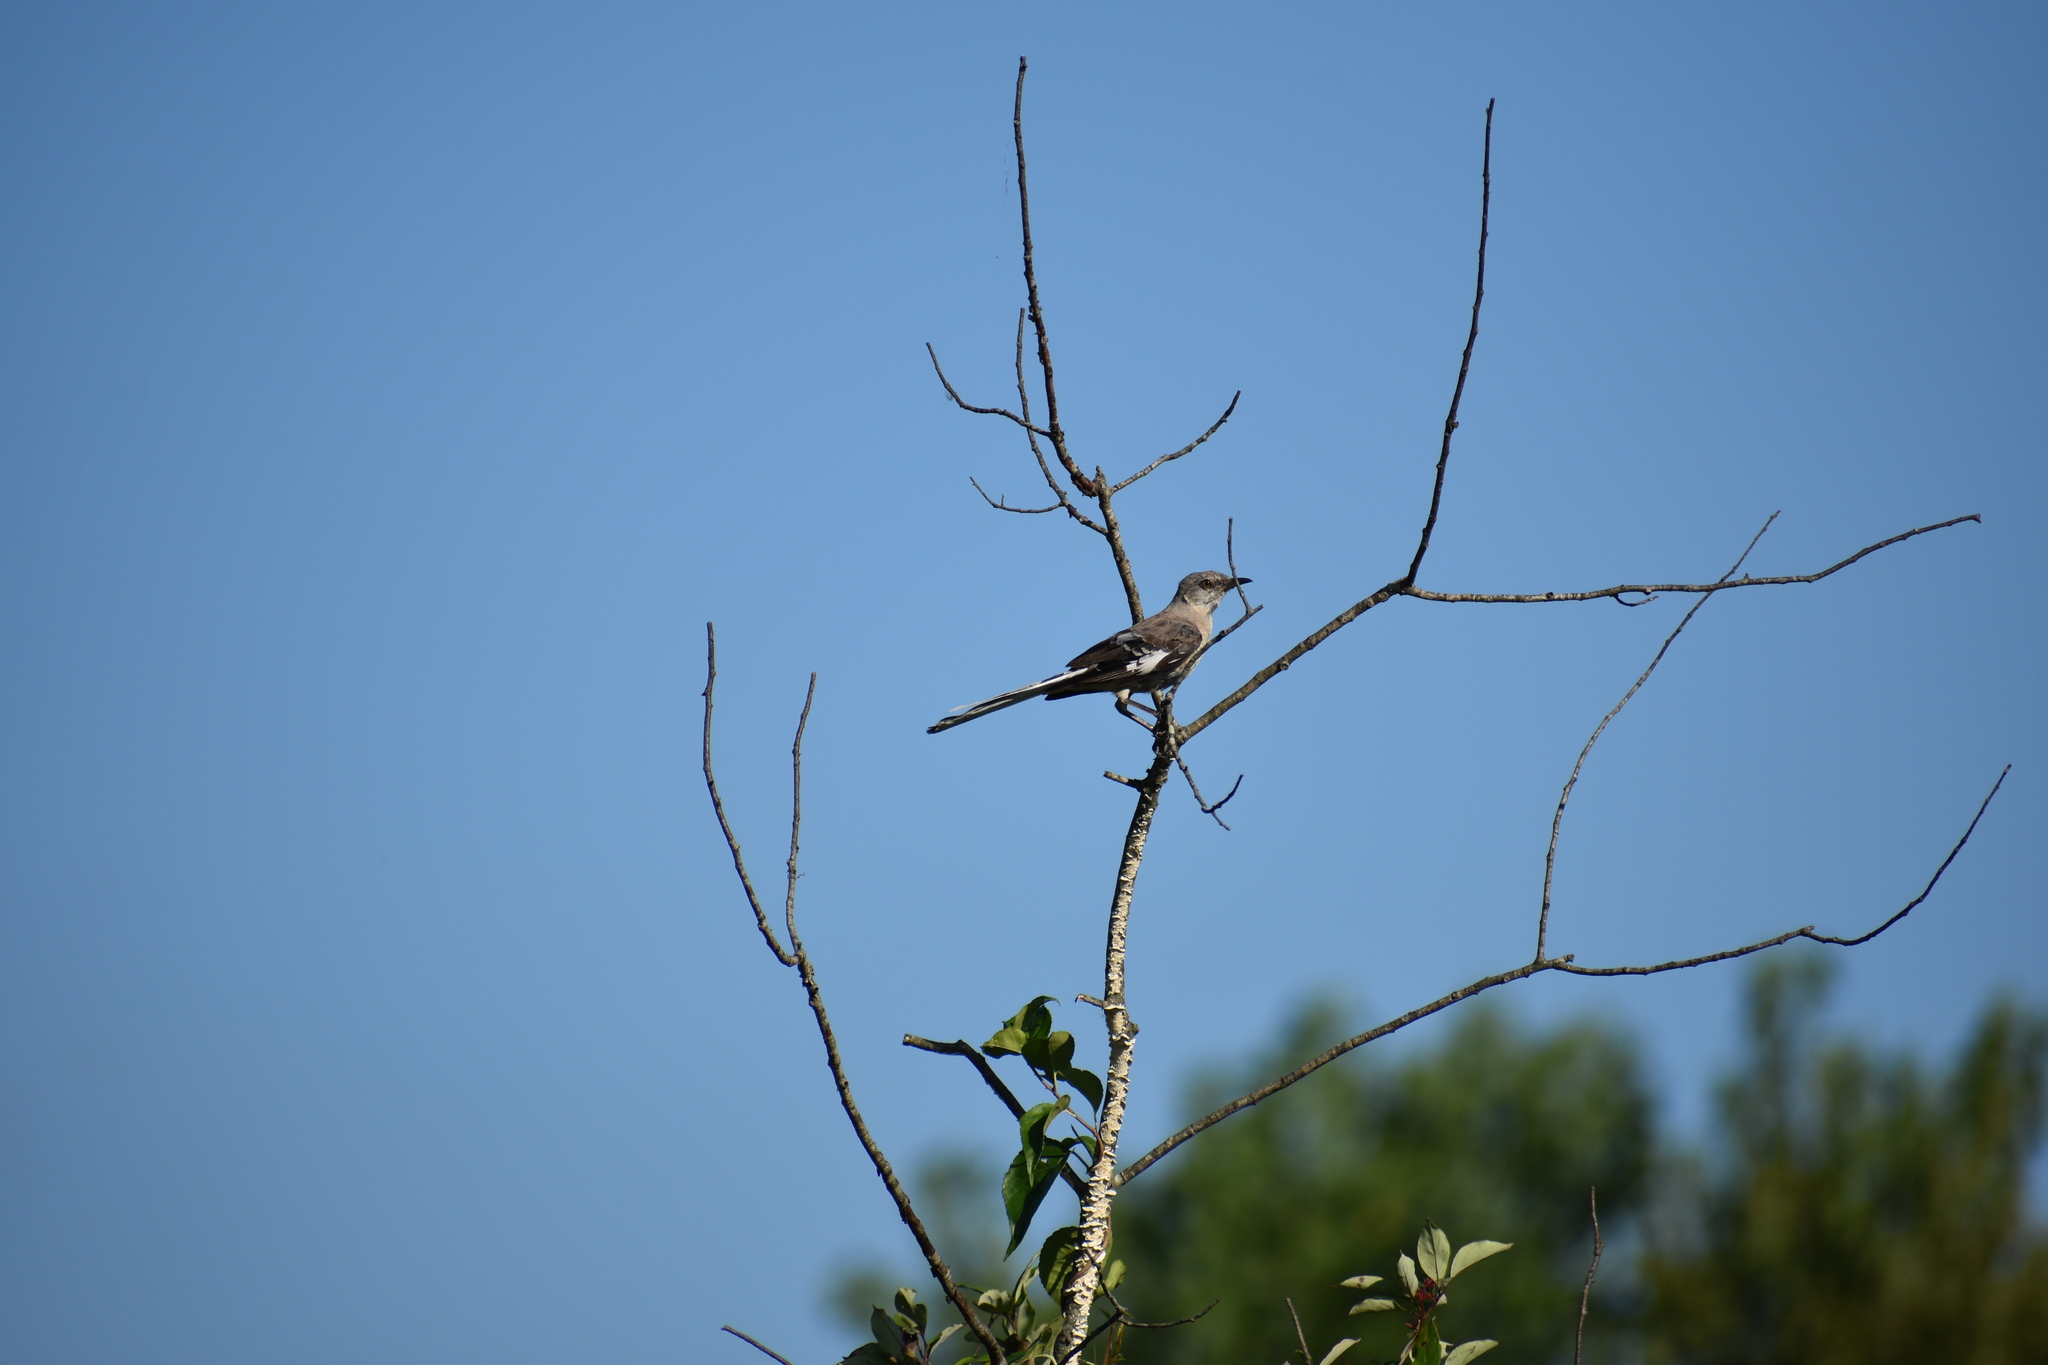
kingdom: Animalia
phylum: Chordata
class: Aves
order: Passeriformes
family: Mimidae
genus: Mimus
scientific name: Mimus polyglottos
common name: Northern mockingbird
